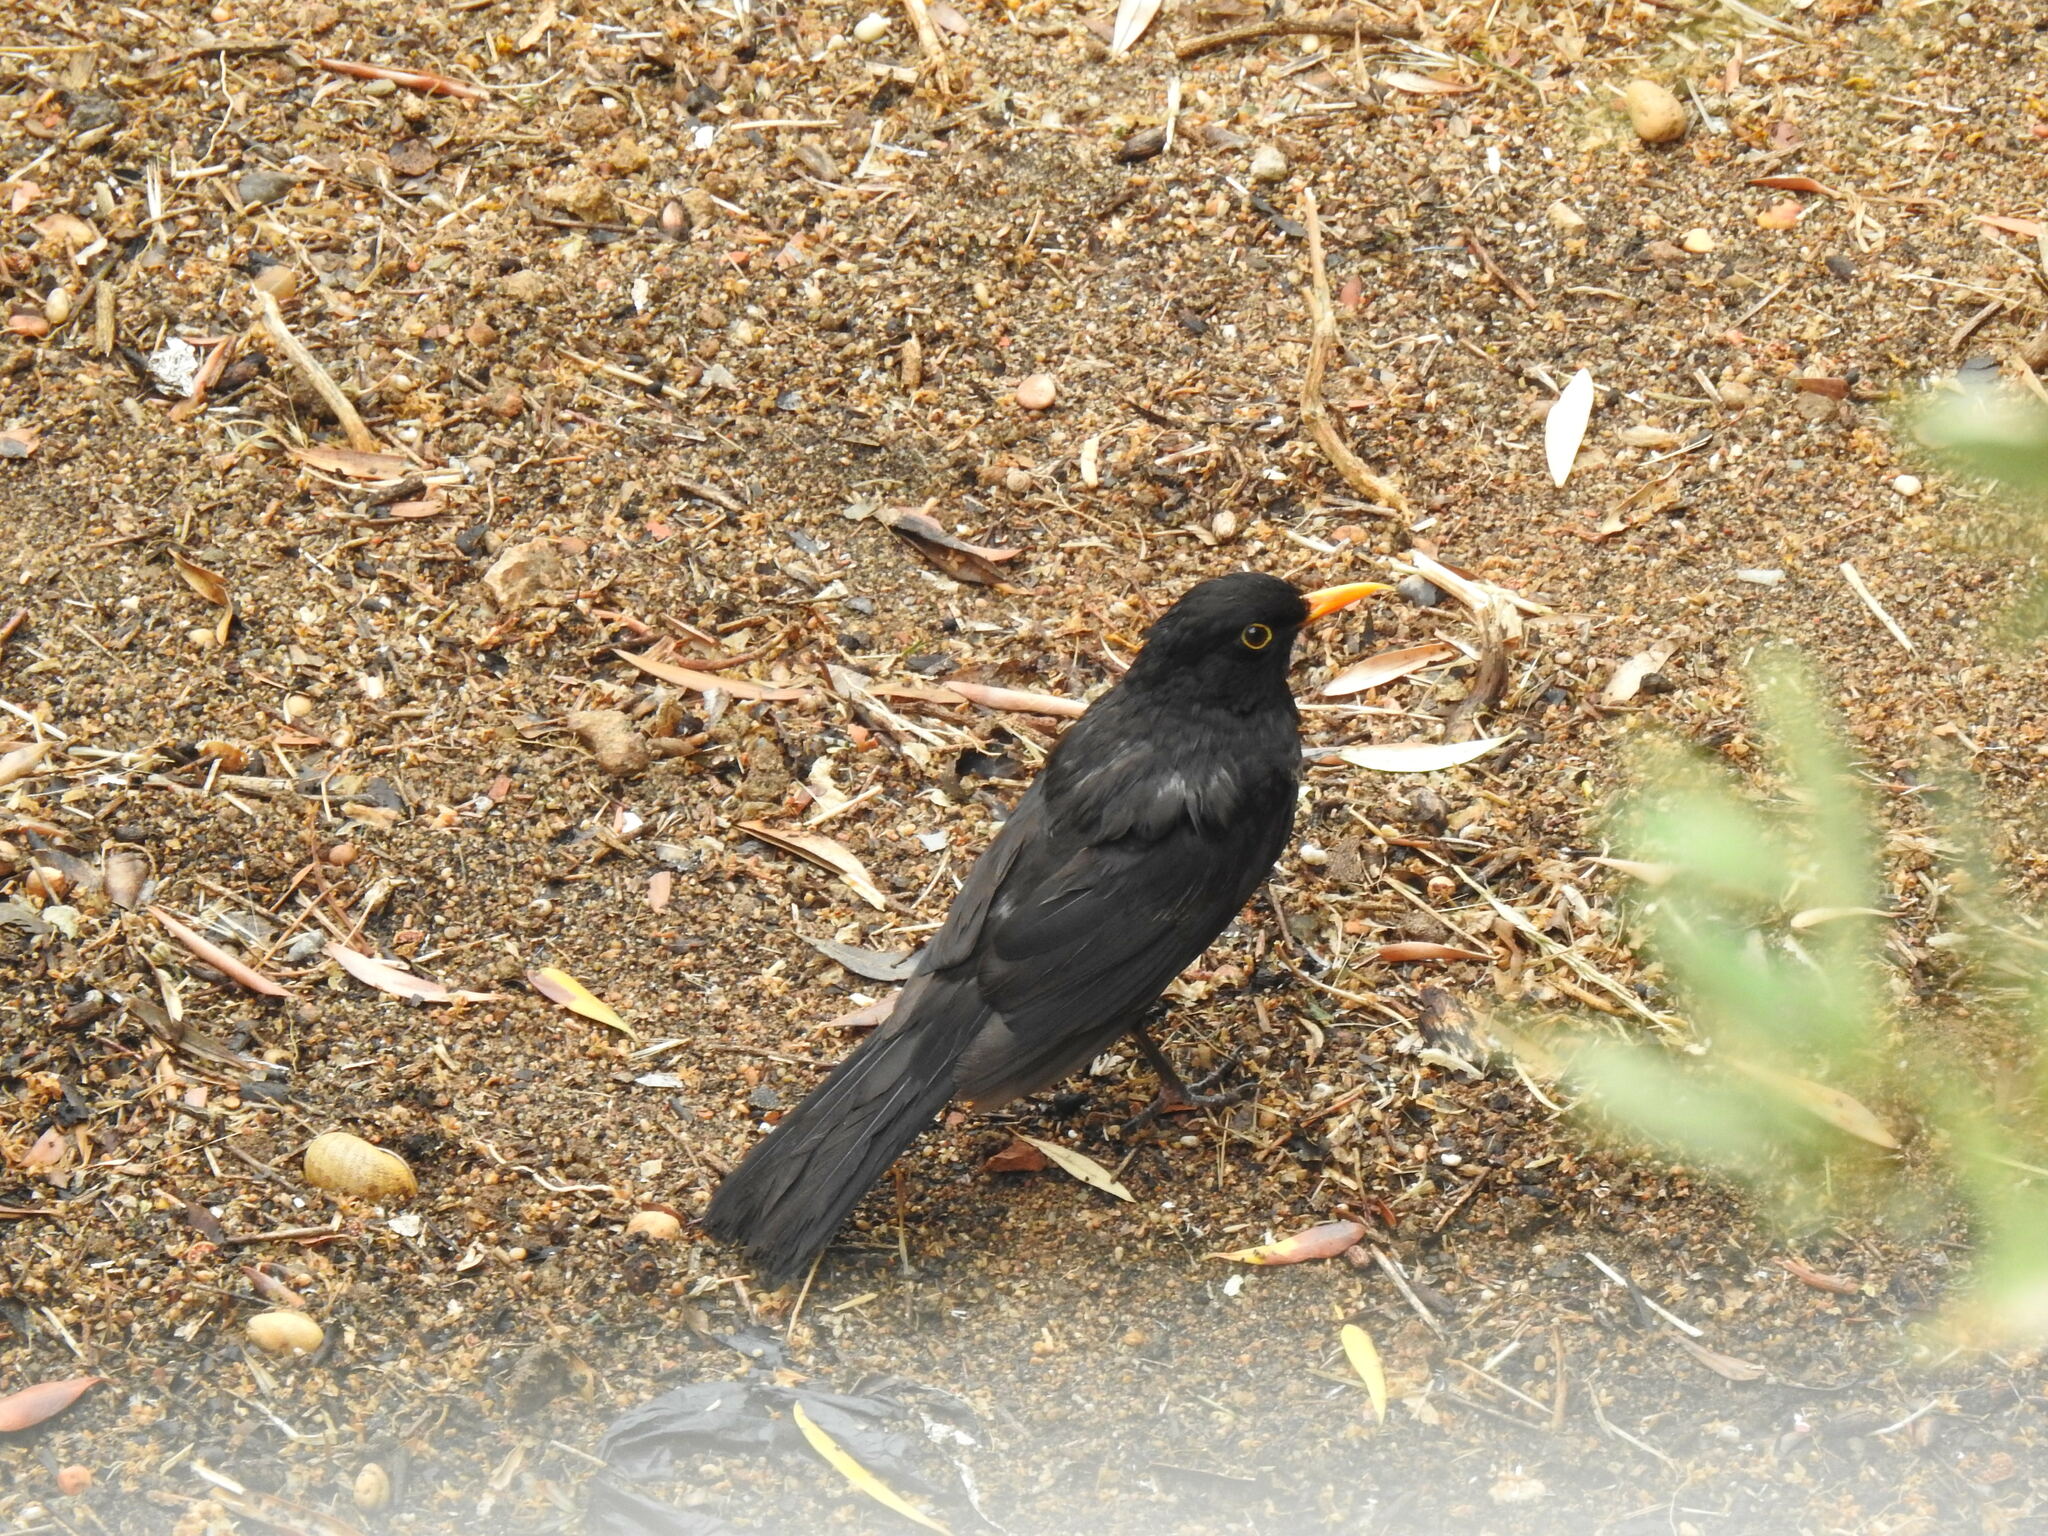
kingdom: Animalia
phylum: Chordata
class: Aves
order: Passeriformes
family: Turdidae
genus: Turdus
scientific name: Turdus merula
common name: Common blackbird
